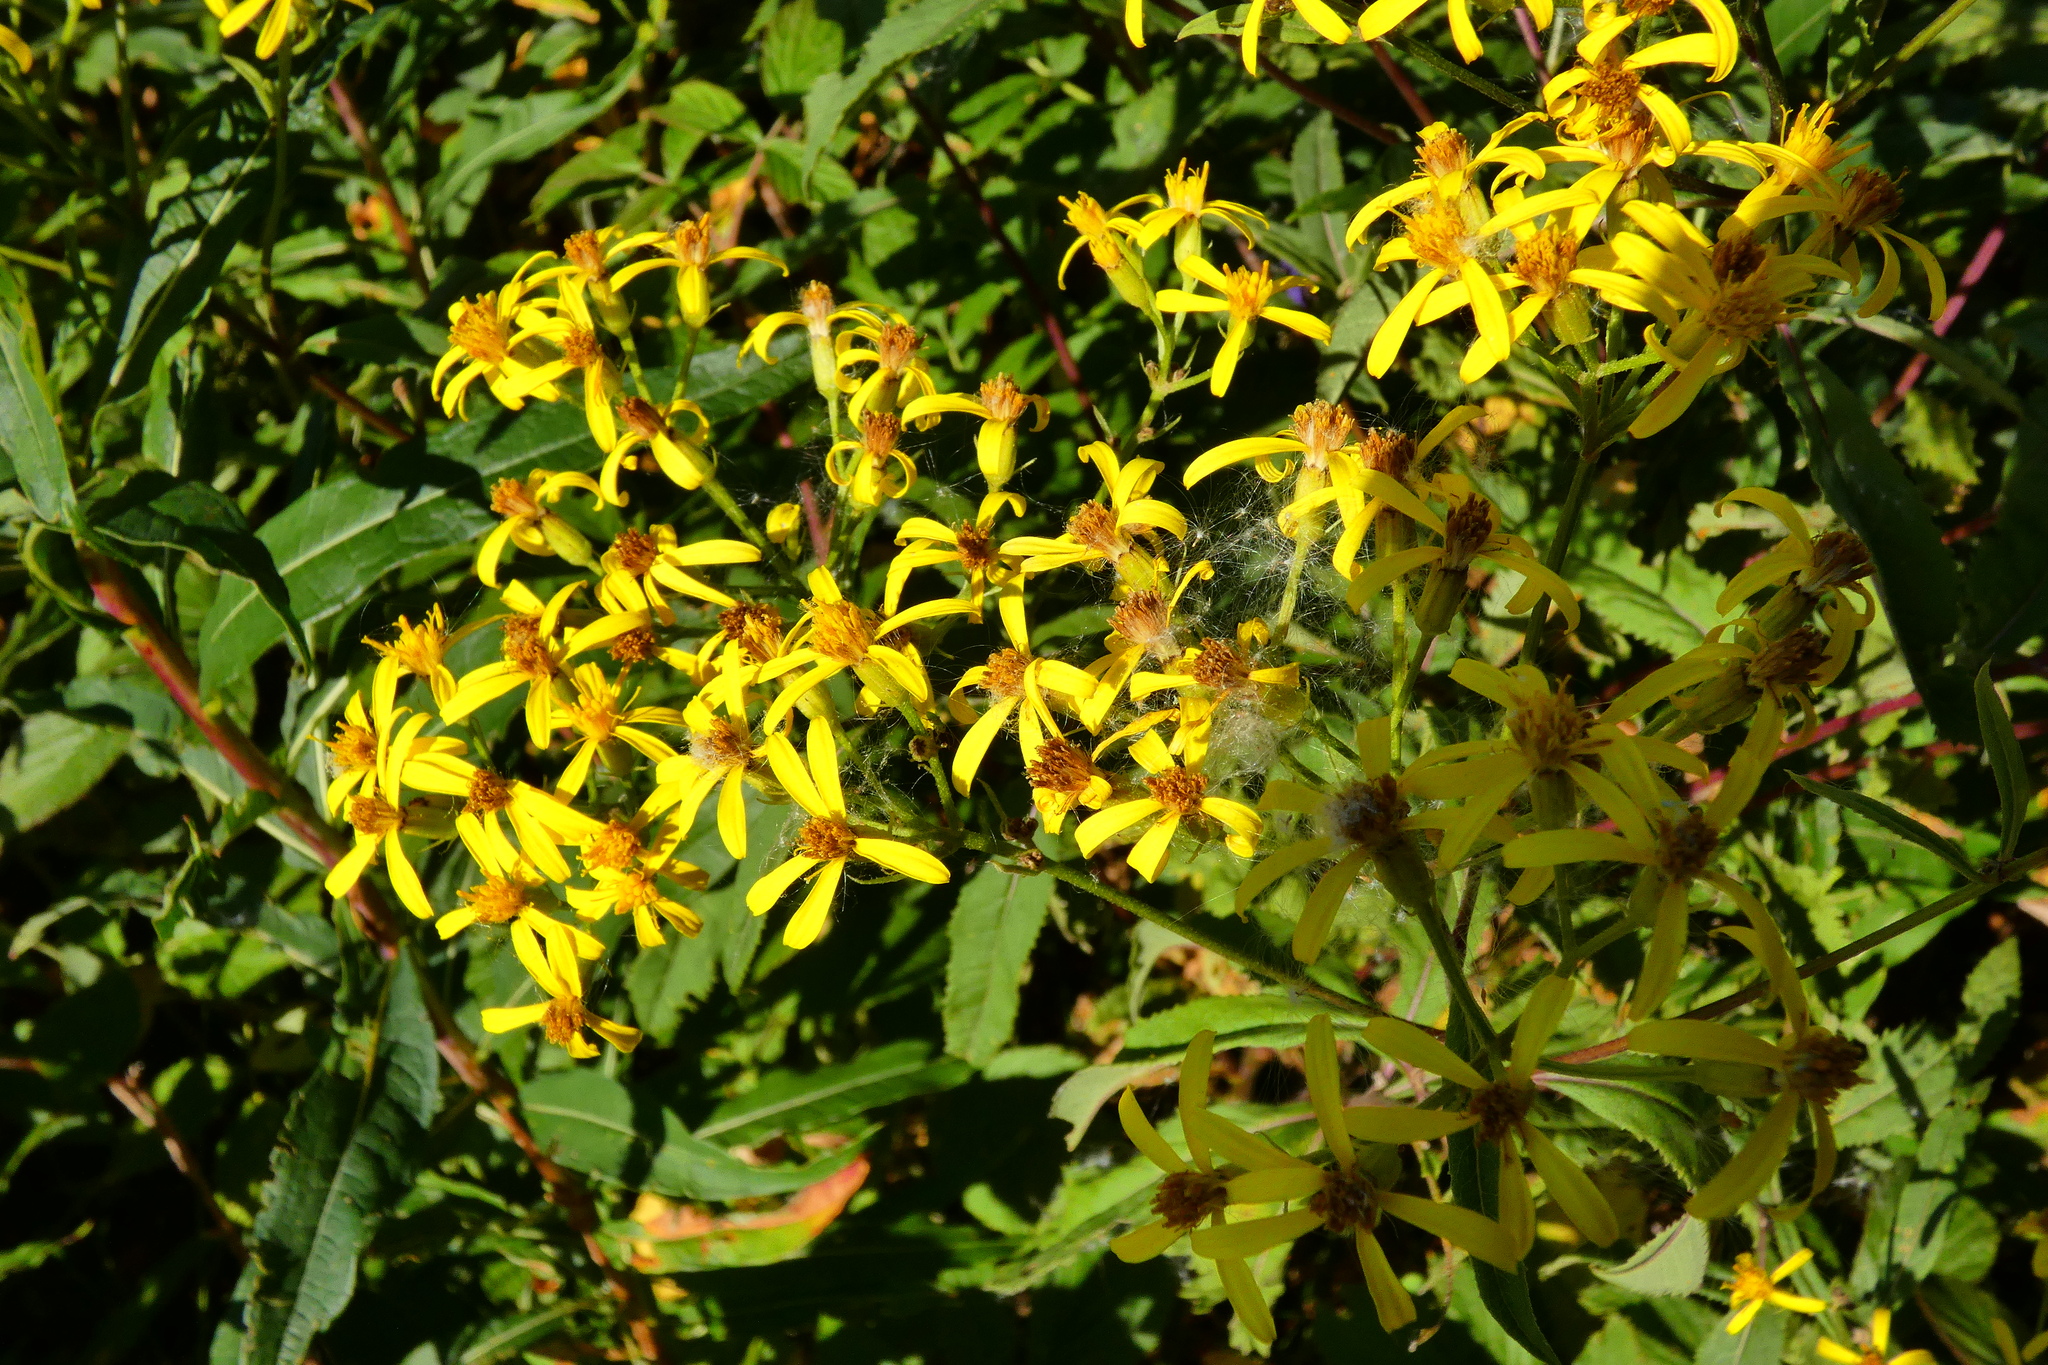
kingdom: Plantae
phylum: Tracheophyta
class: Magnoliopsida
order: Asterales
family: Asteraceae
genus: Senecio
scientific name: Senecio ovatus
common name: Wood ragwort
